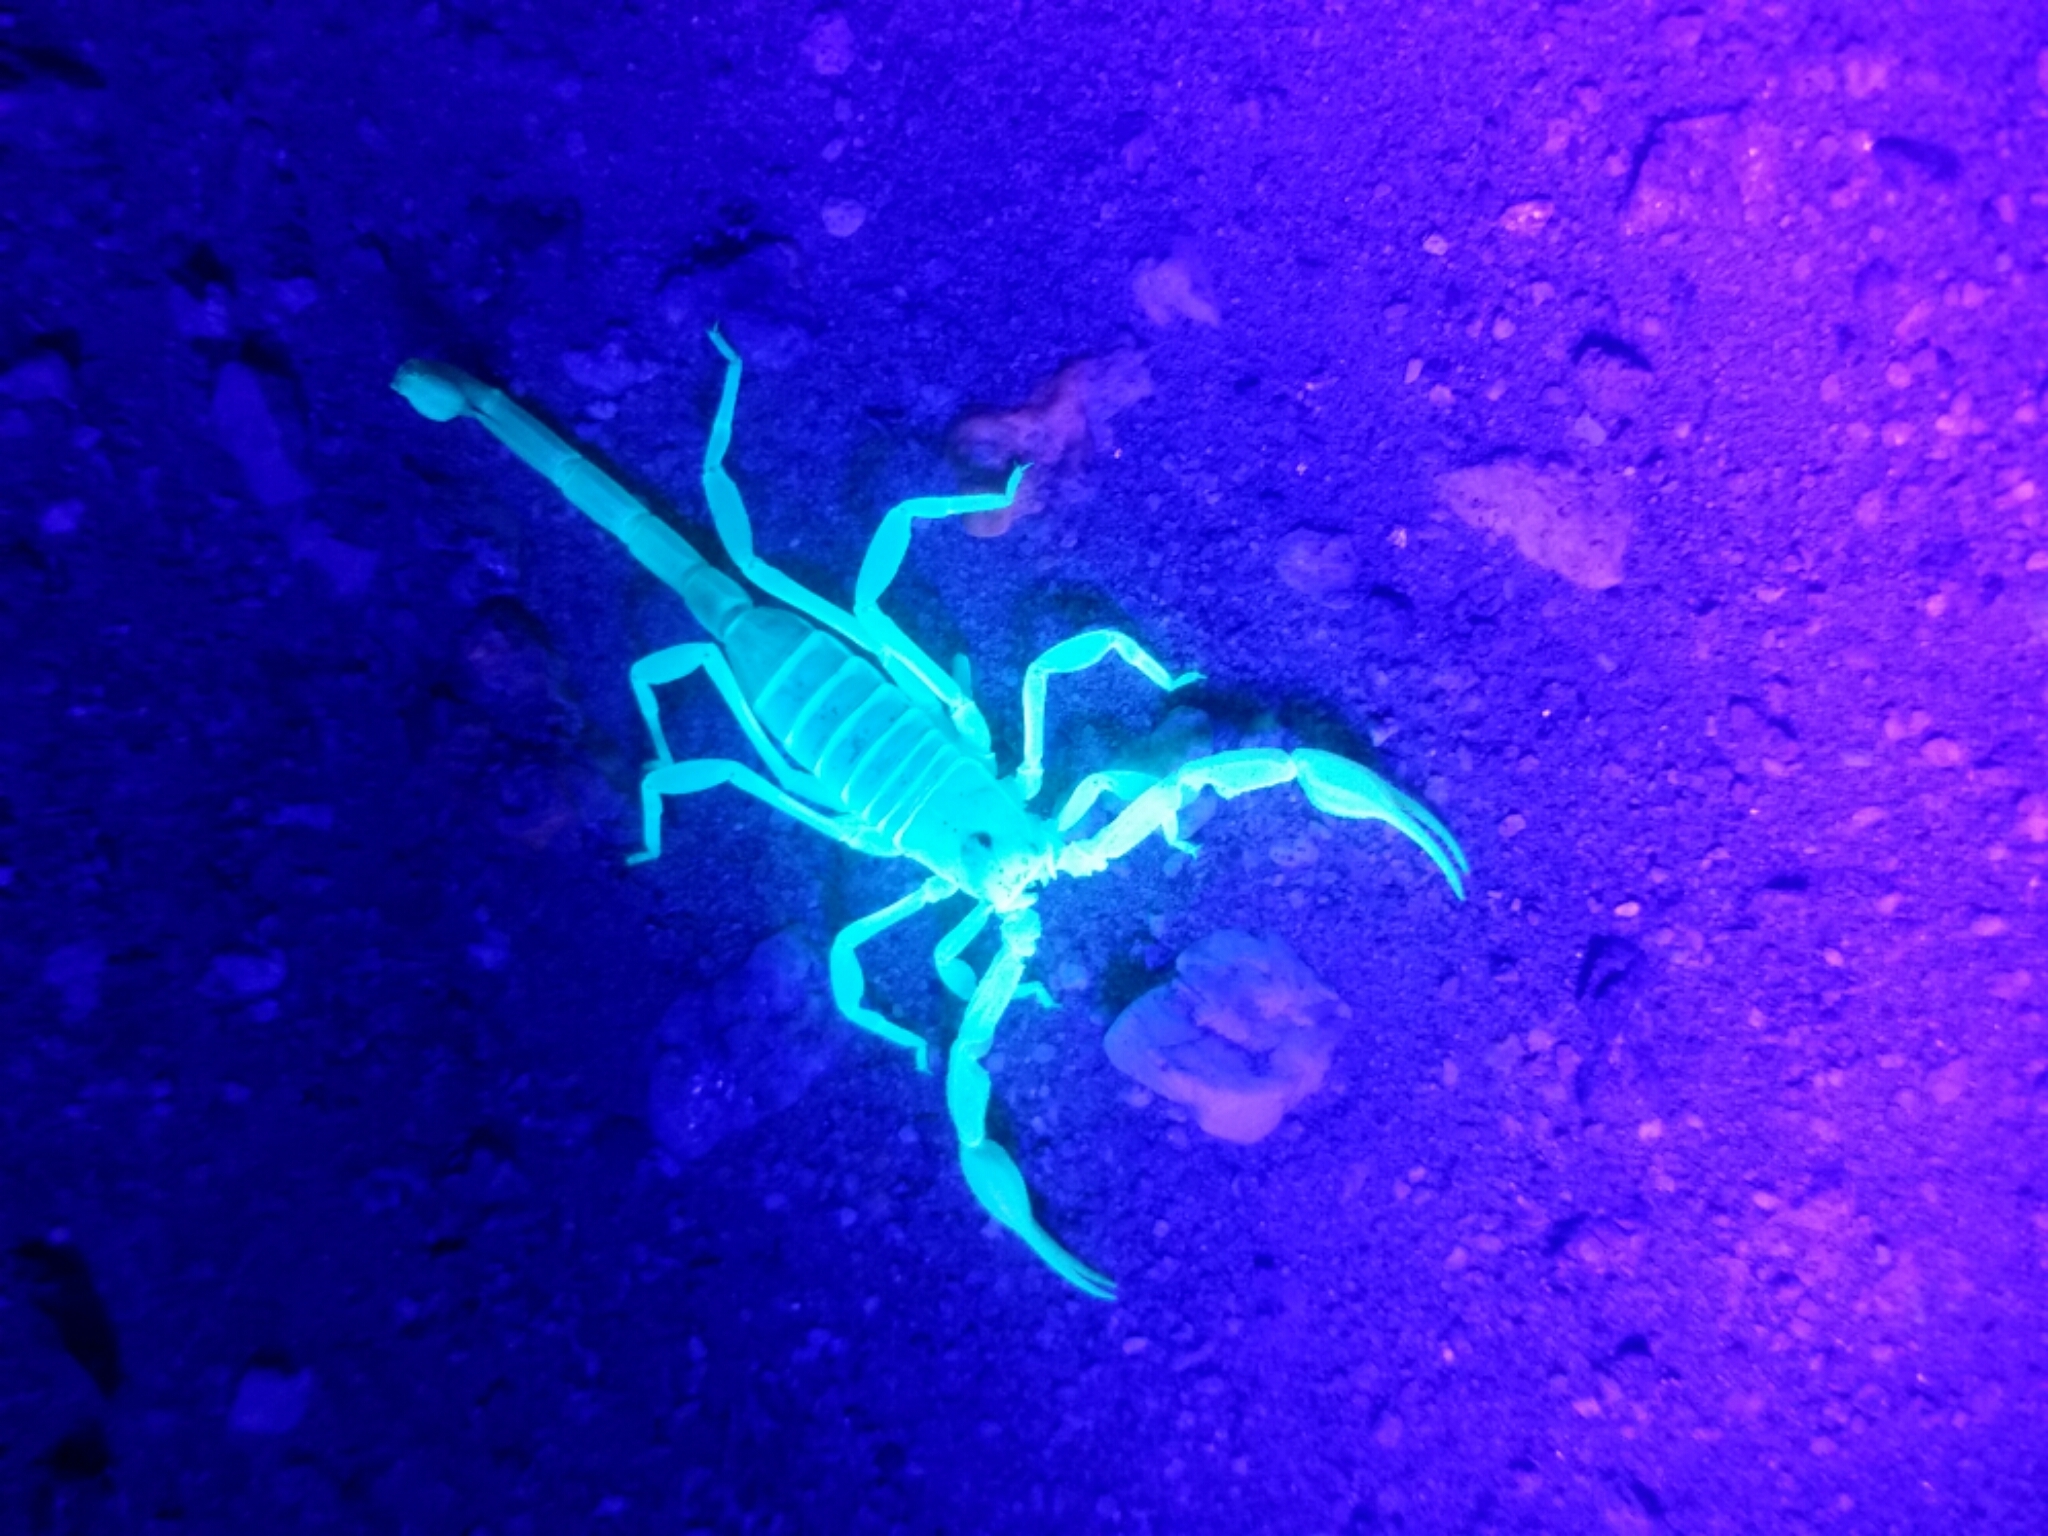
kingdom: Animalia
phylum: Arthropoda
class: Arachnida
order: Scorpiones
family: Vaejovidae
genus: Smeringurus
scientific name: Smeringurus mesaensis
